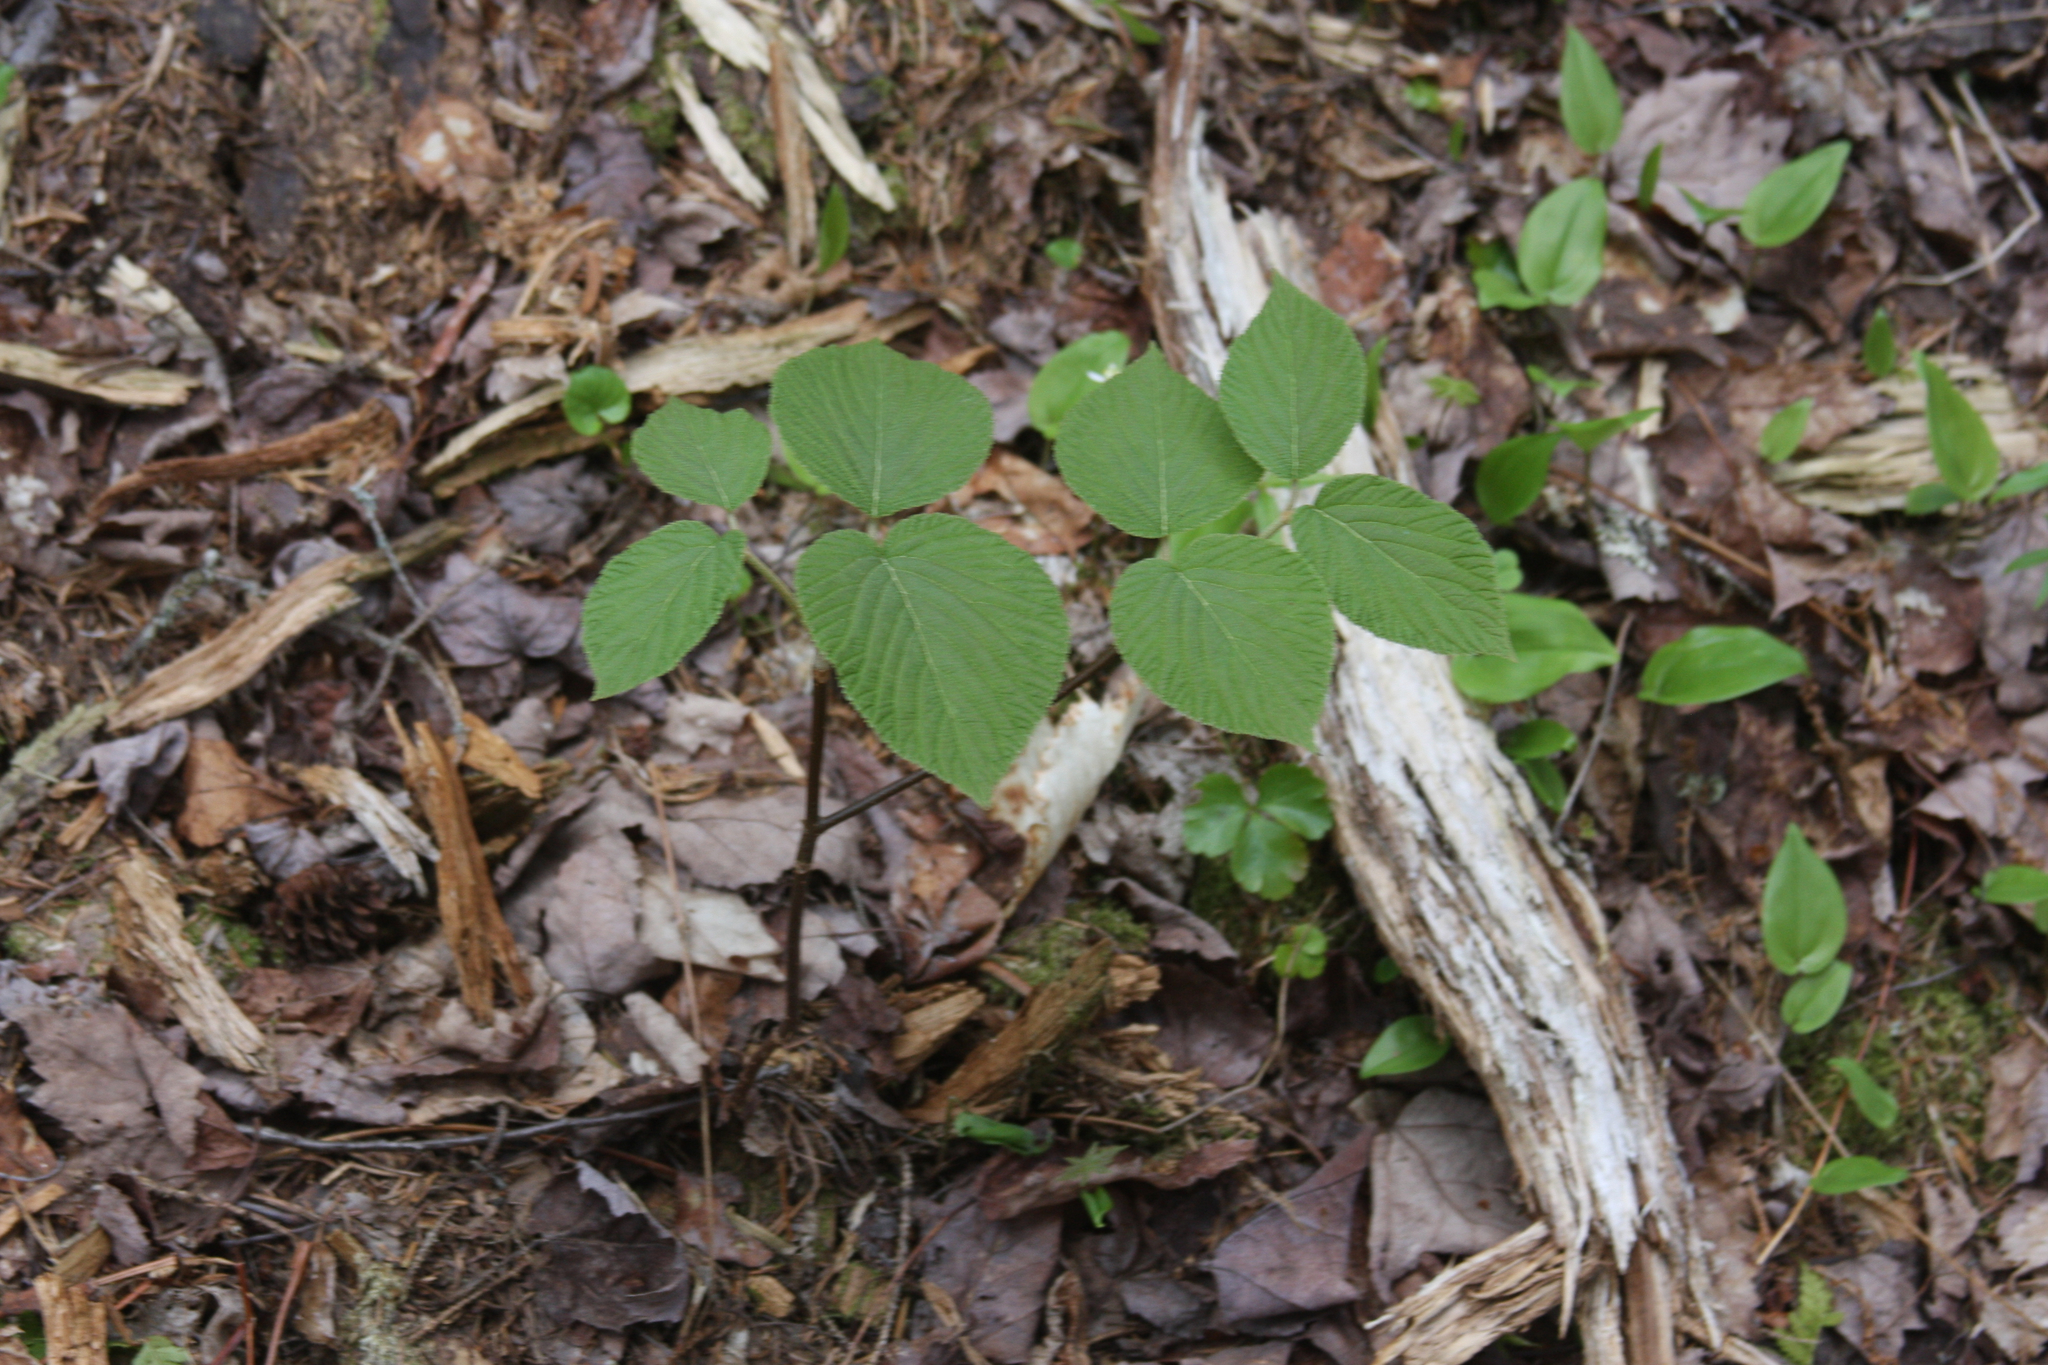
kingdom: Plantae
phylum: Tracheophyta
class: Liliopsida
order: Asparagales
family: Asparagaceae
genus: Maianthemum
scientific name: Maianthemum canadense
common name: False lily-of-the-valley
